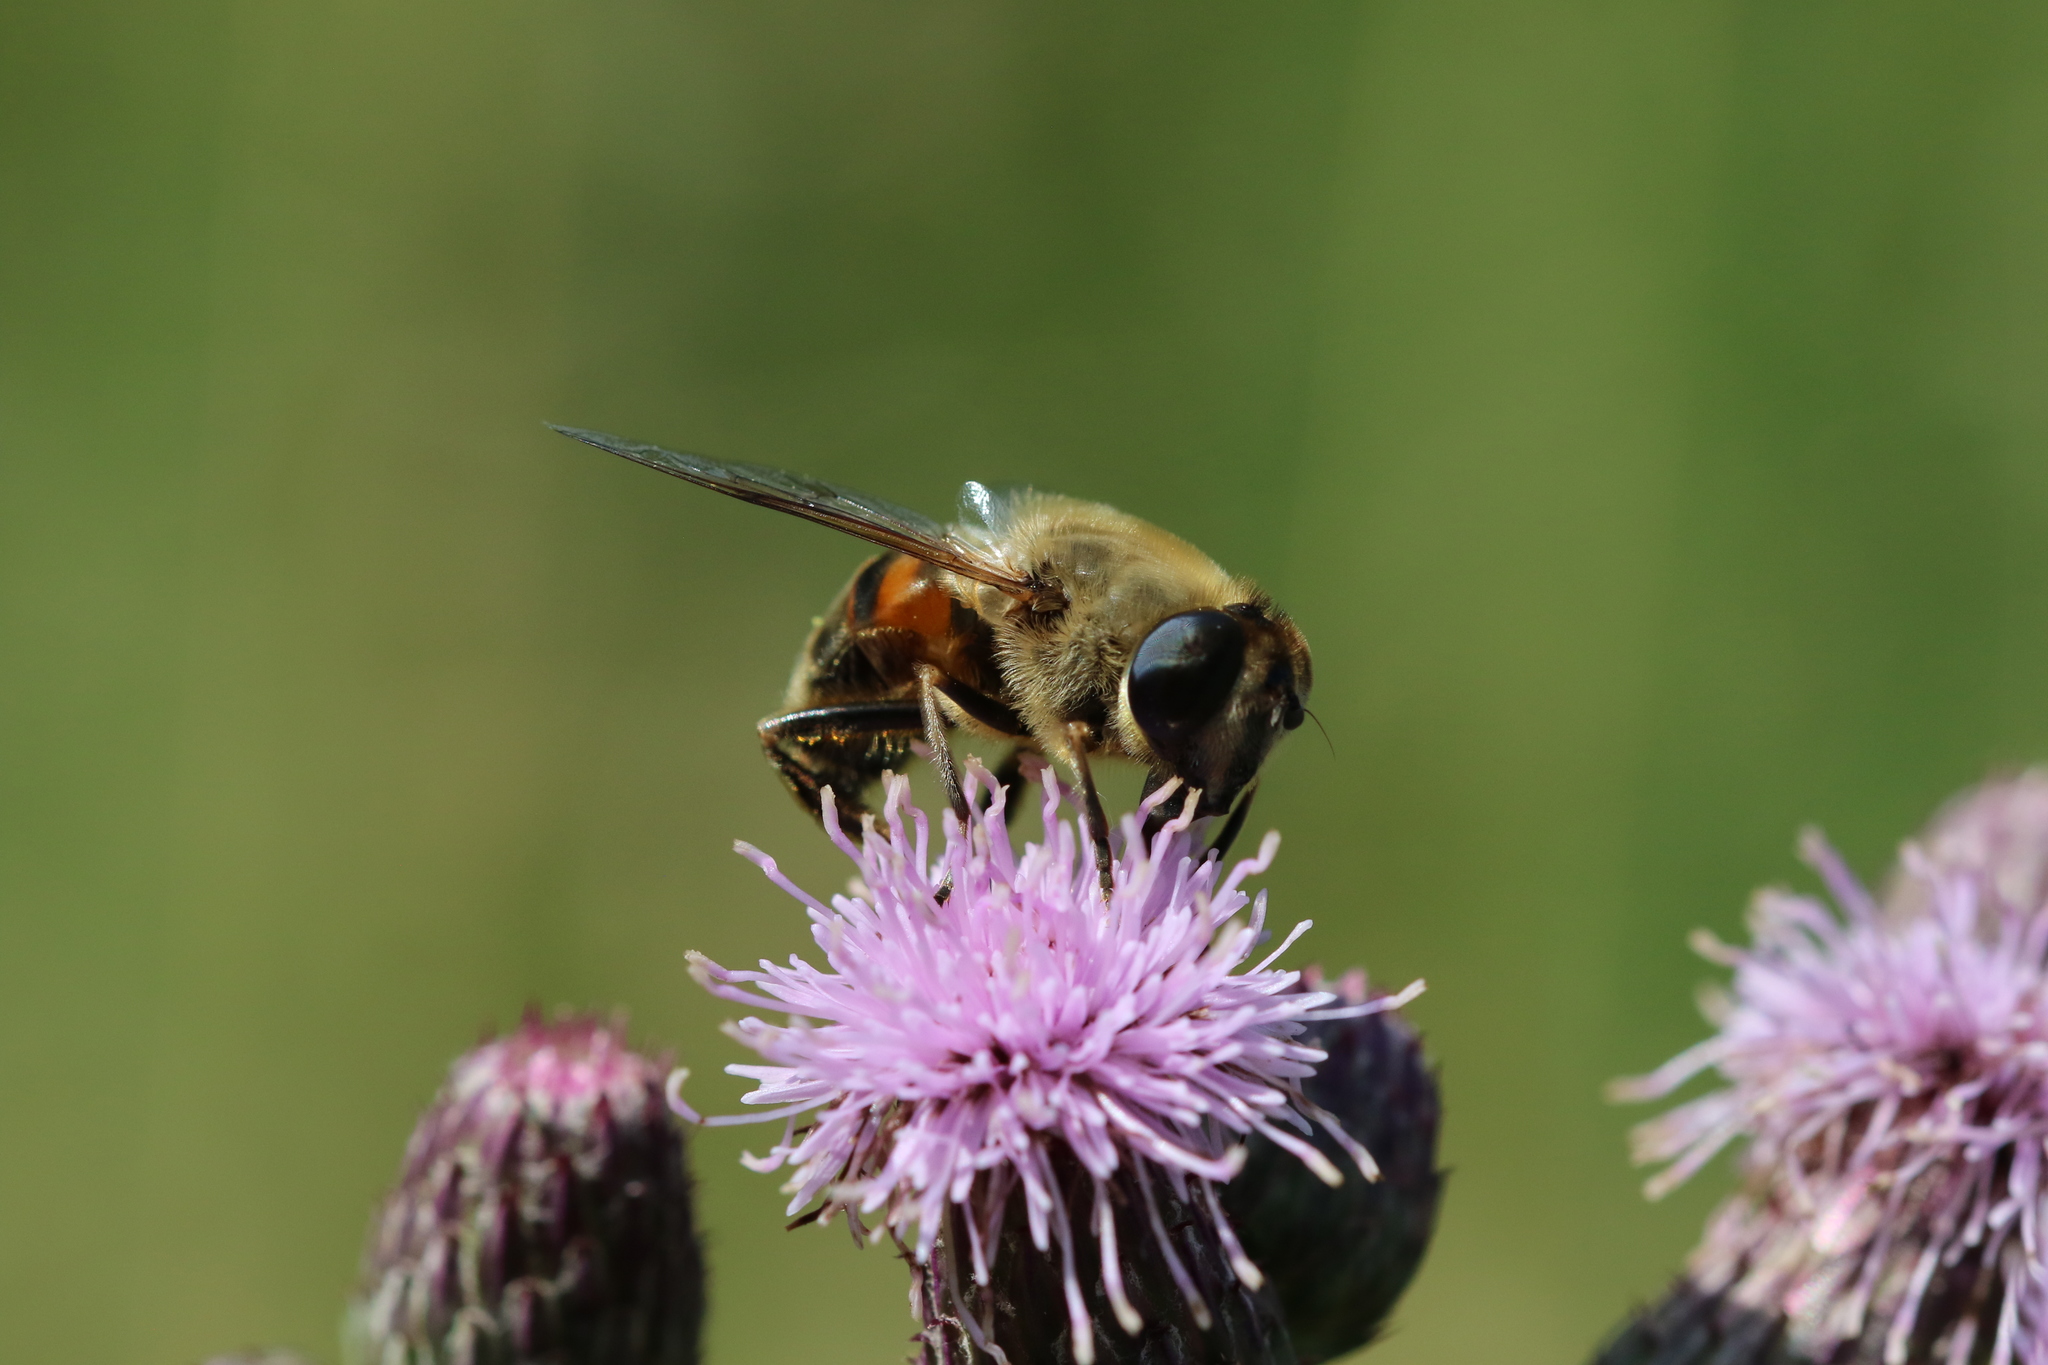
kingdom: Animalia
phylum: Arthropoda
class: Insecta
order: Diptera
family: Syrphidae
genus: Eristalis
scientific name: Eristalis tenax
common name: Drone fly
